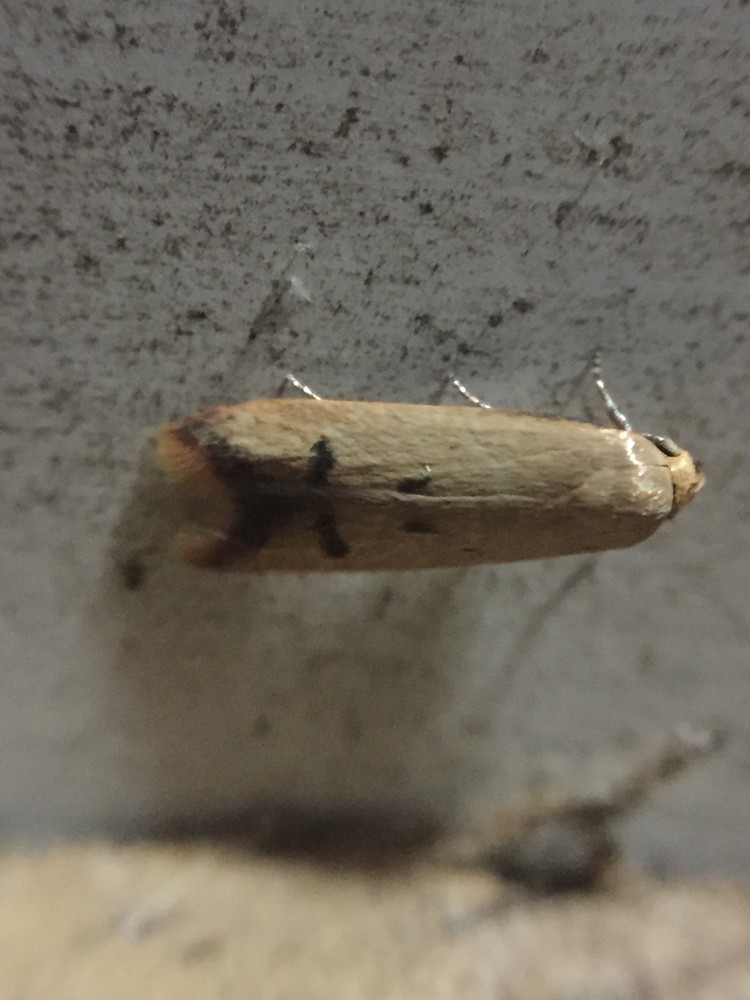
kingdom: Animalia
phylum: Arthropoda
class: Insecta
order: Lepidoptera
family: Oecophoridae
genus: Tachystola
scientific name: Tachystola hemisema
